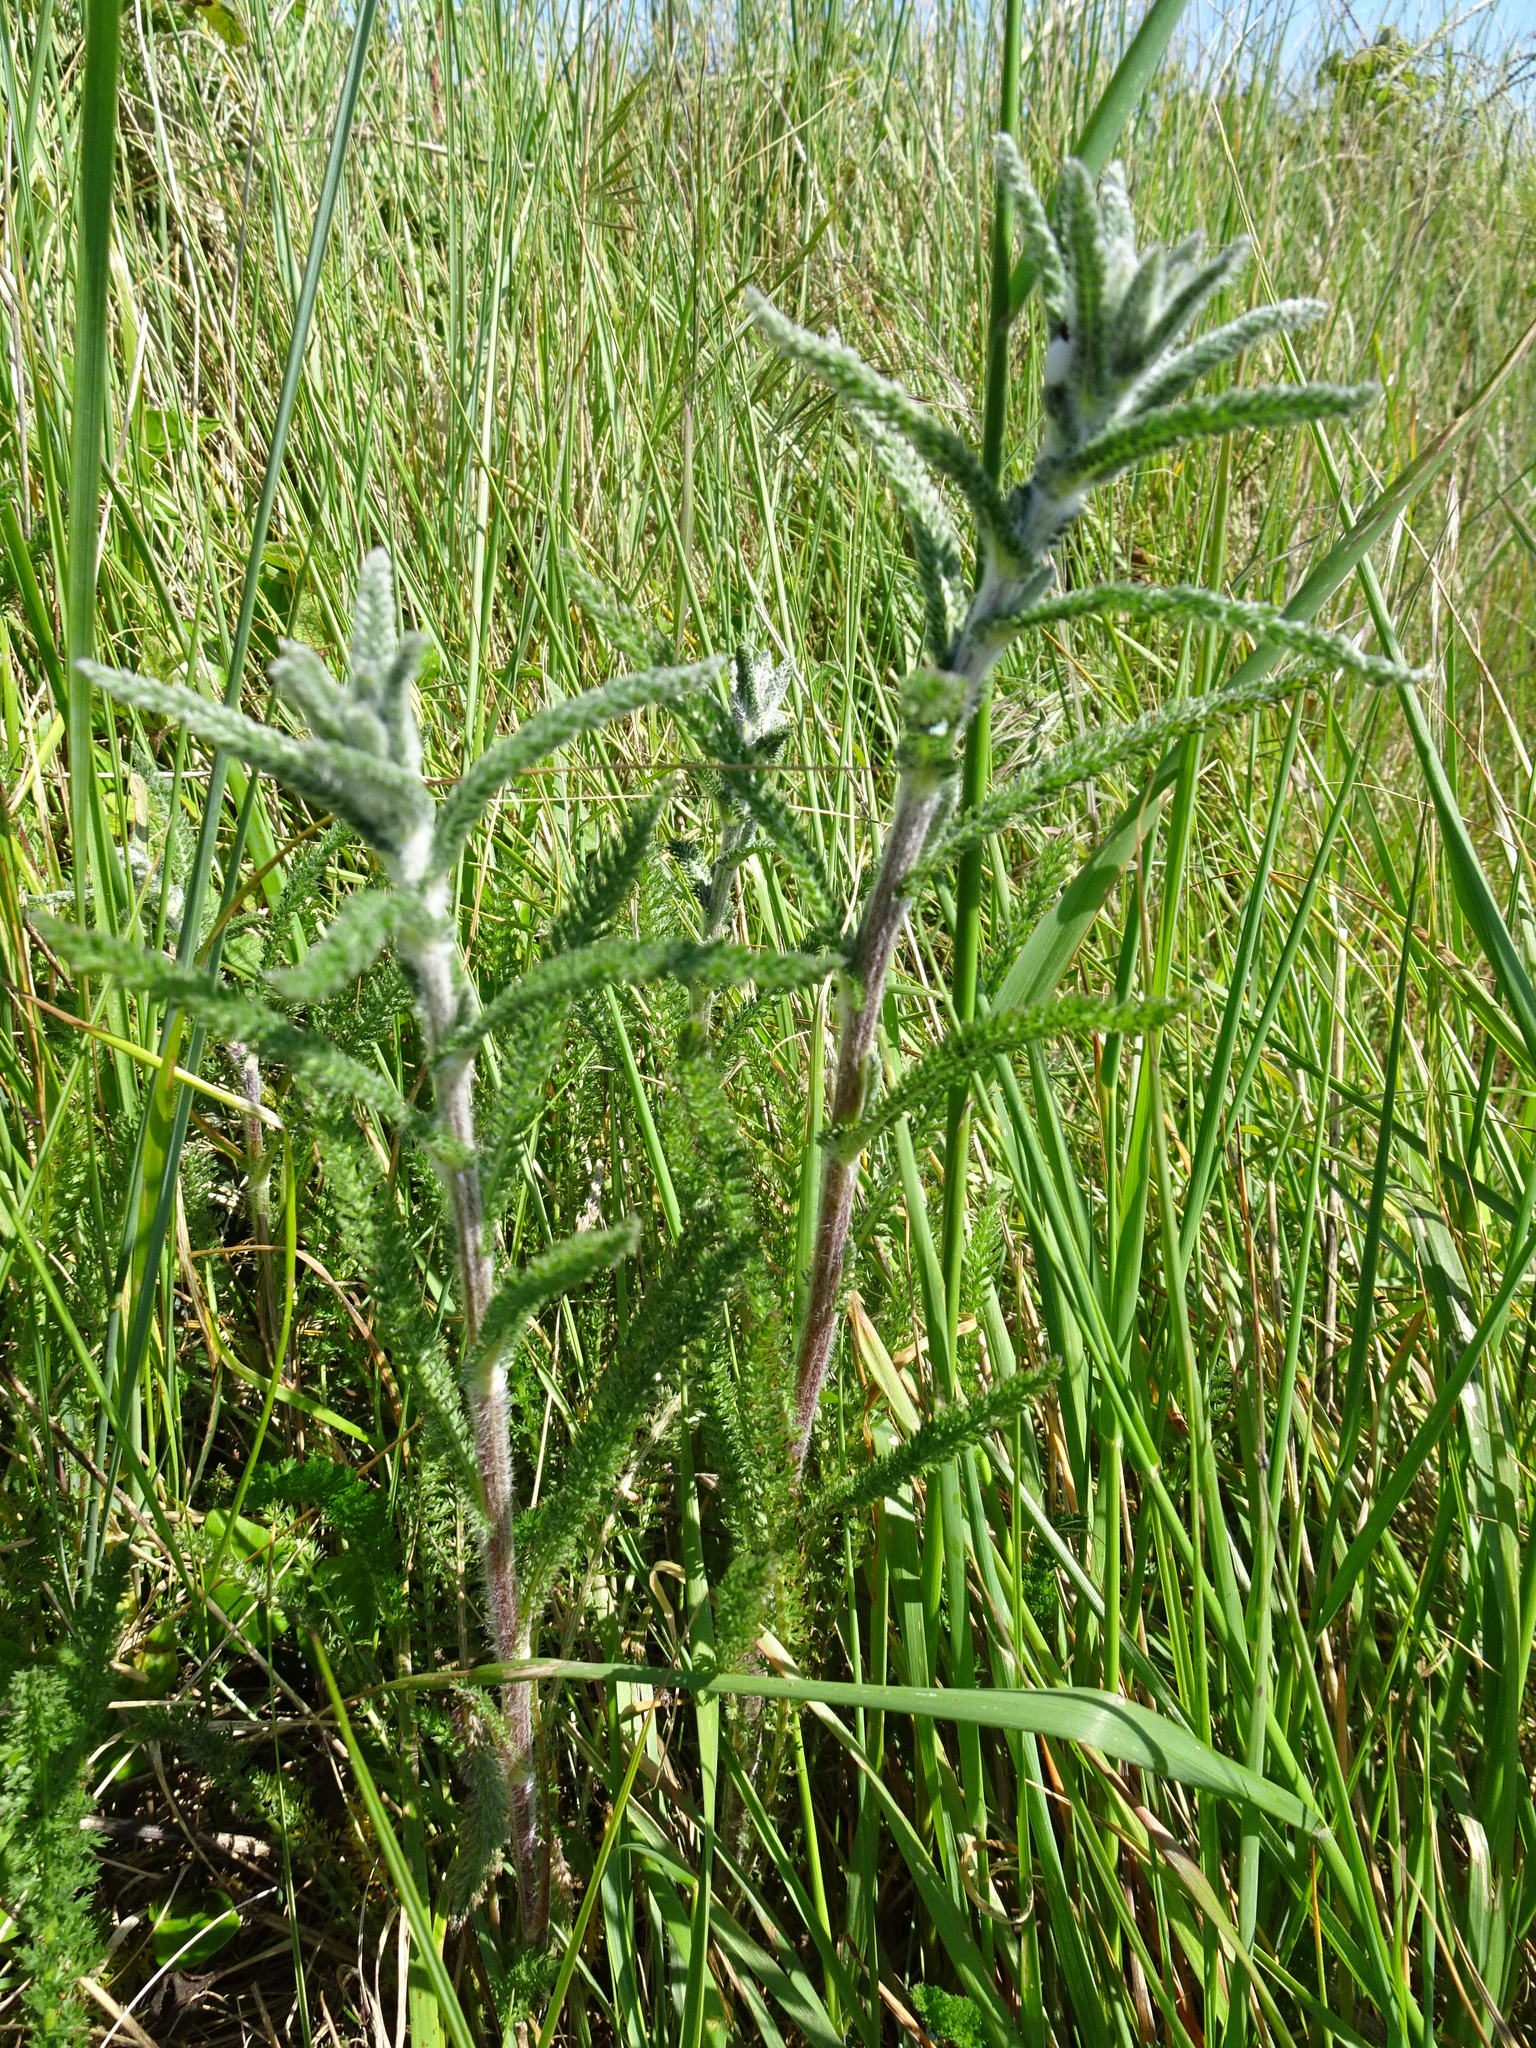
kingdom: Plantae
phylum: Tracheophyta
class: Magnoliopsida
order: Asterales
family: Asteraceae
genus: Achillea
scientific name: Achillea millefolium
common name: Yarrow
